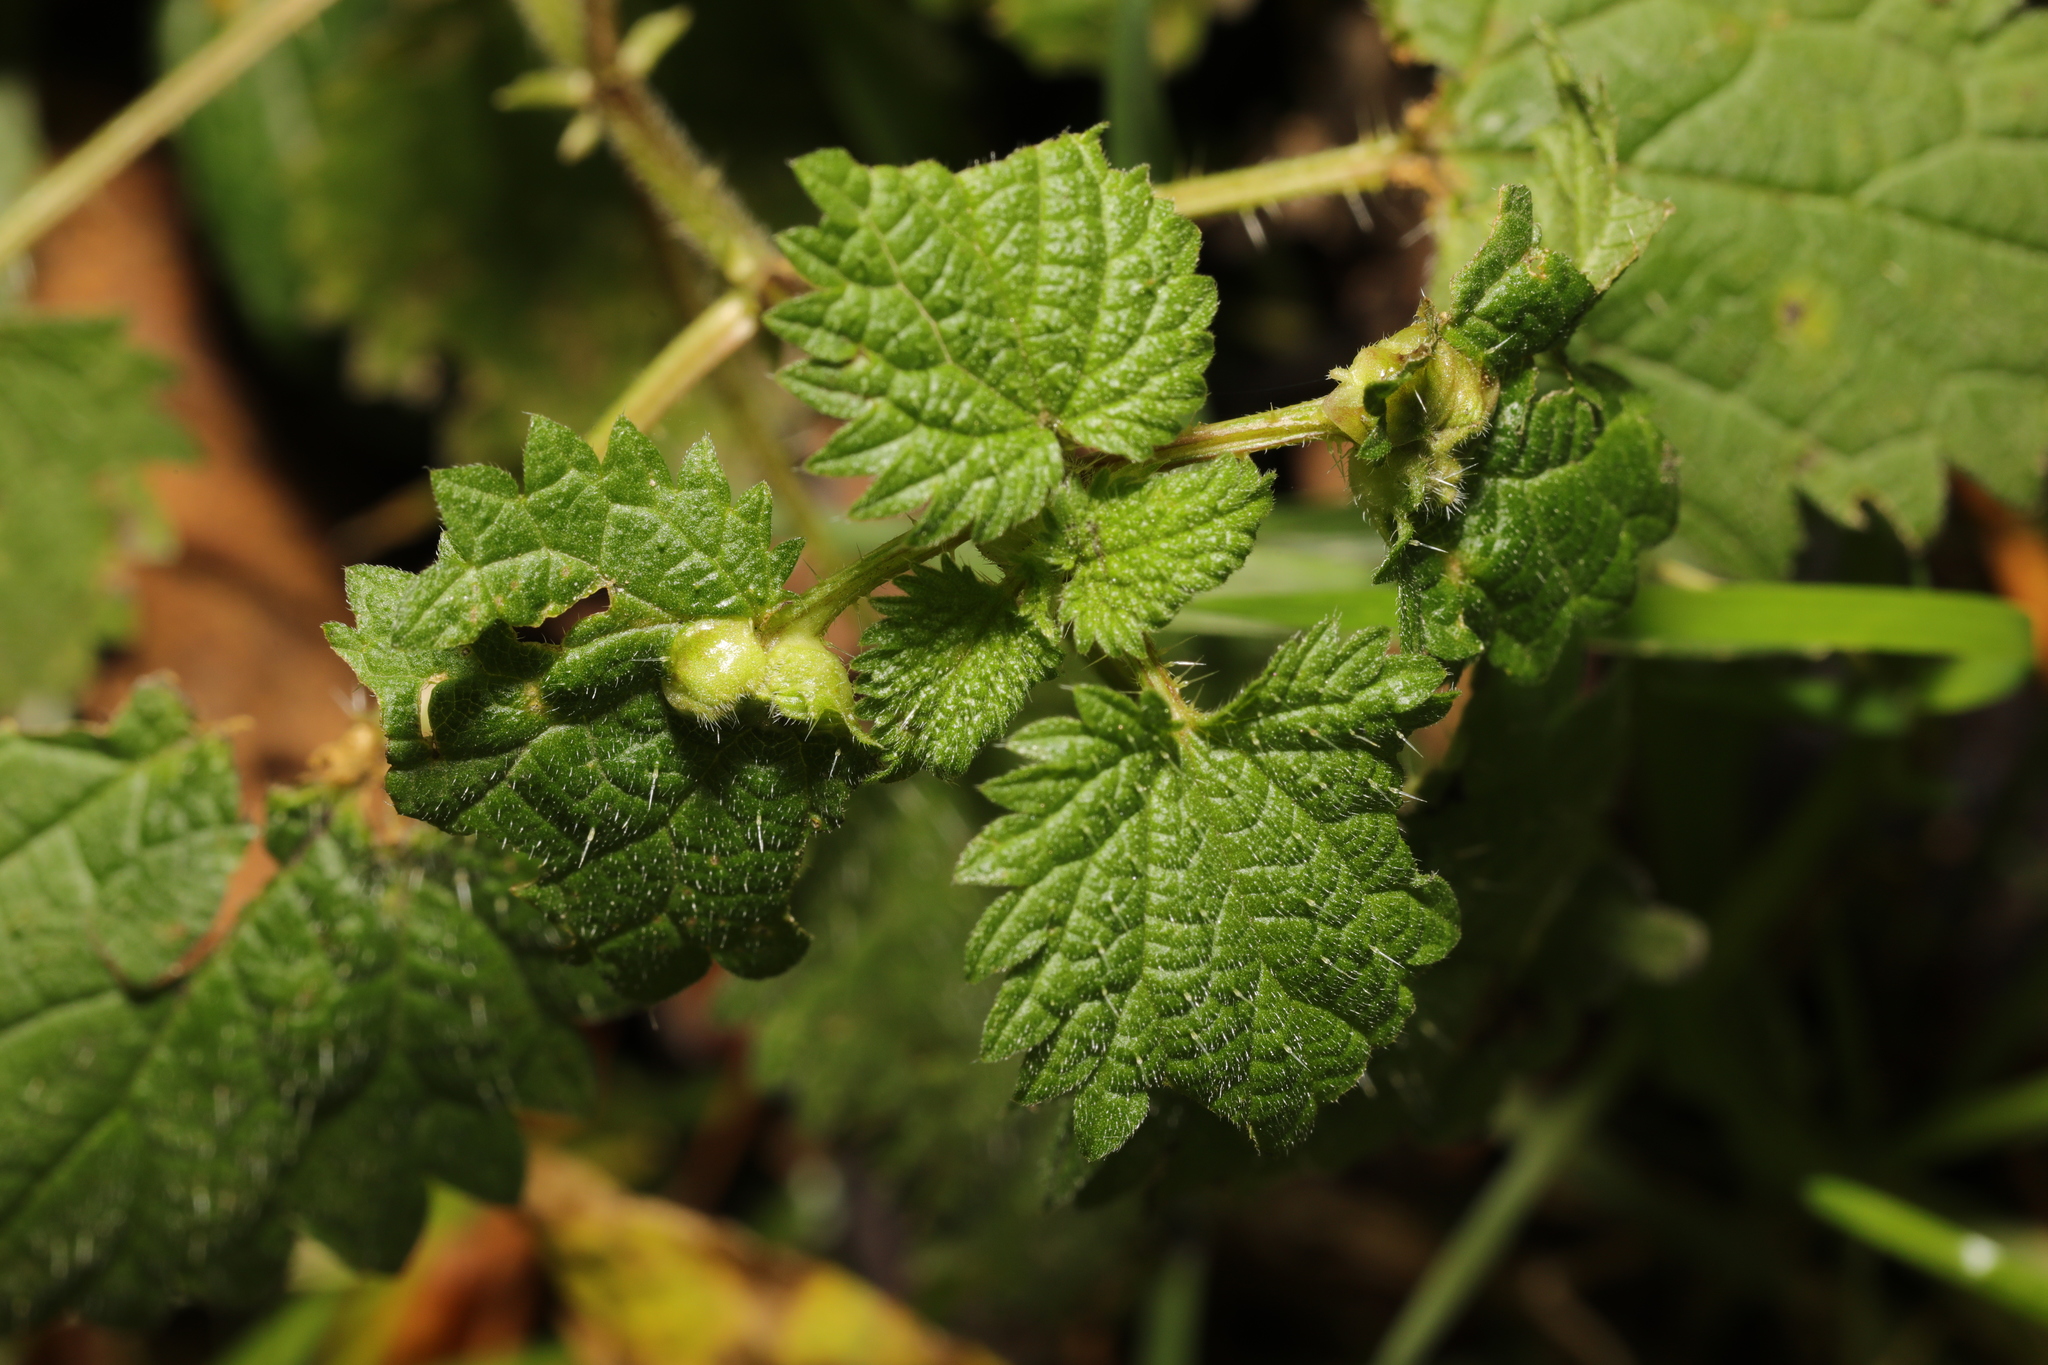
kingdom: Animalia
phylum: Arthropoda
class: Insecta
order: Diptera
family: Cecidomyiidae
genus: Dasineura
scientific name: Dasineura urticae
